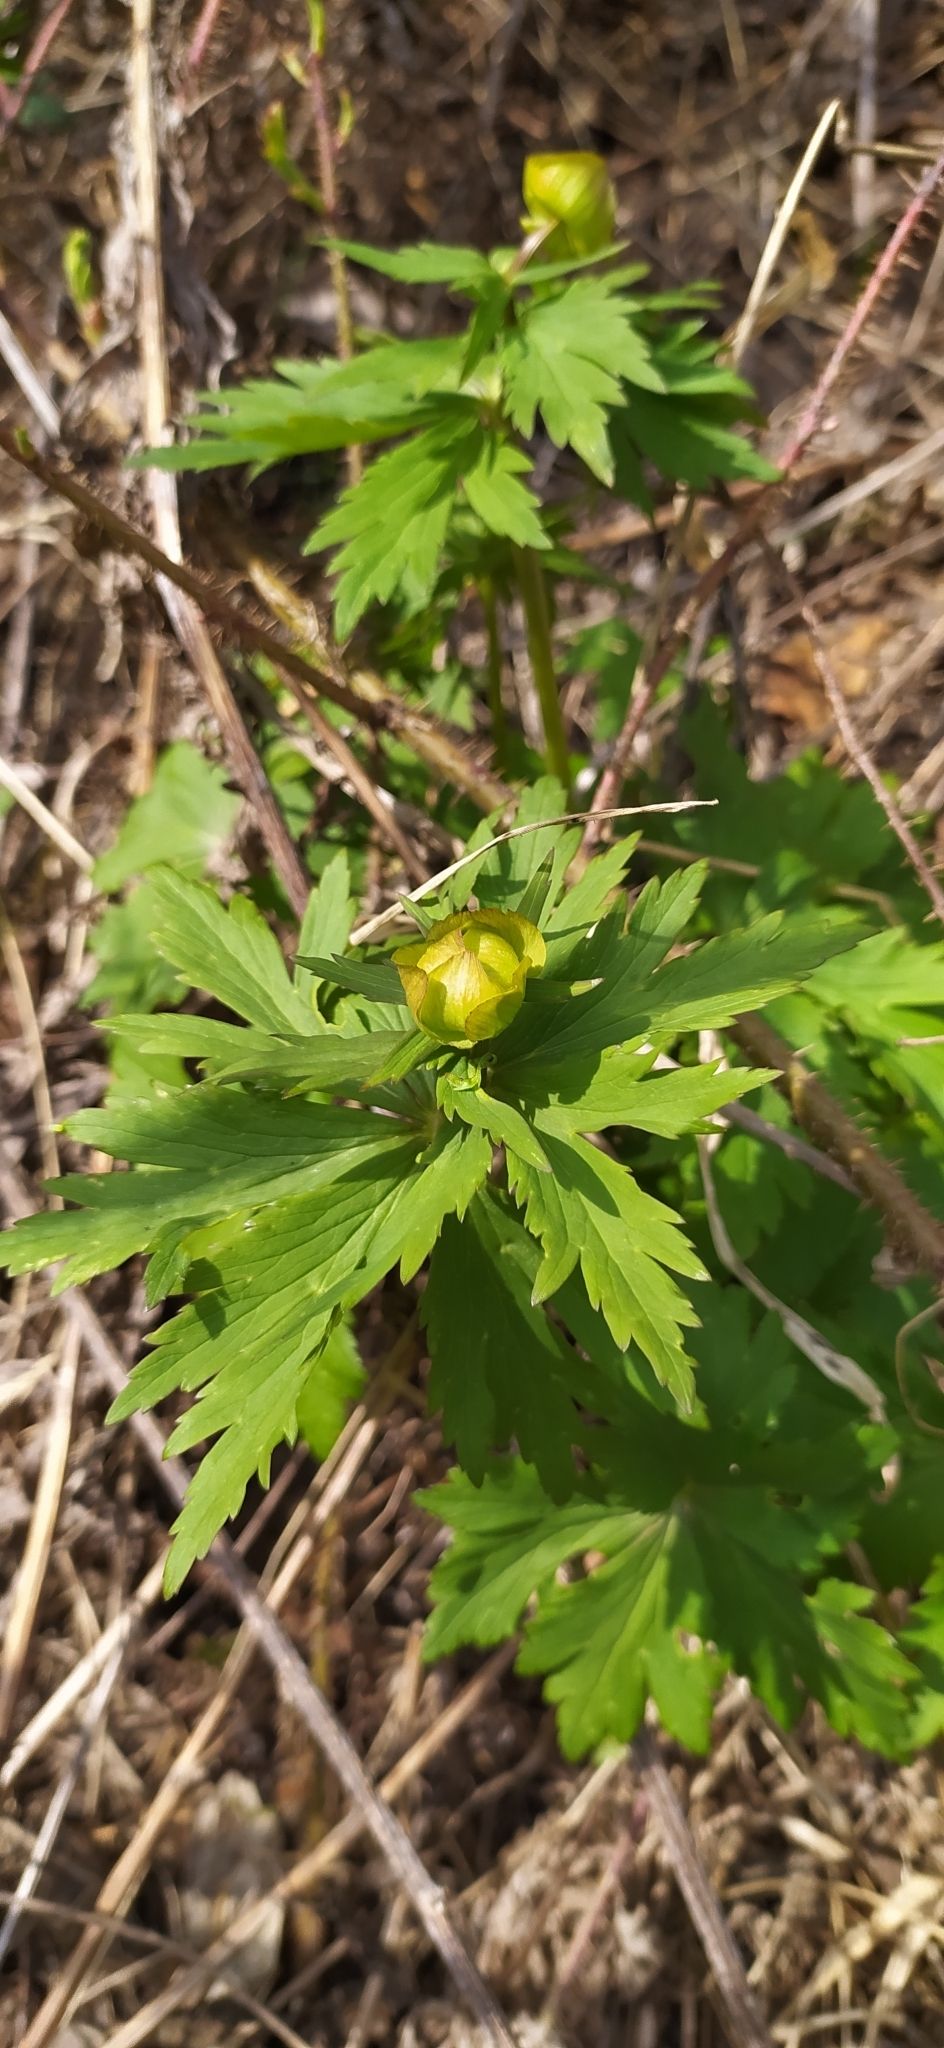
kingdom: Plantae
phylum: Tracheophyta
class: Magnoliopsida
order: Ranunculales
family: Ranunculaceae
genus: Trollius
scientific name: Trollius europaeus
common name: European globeflower
